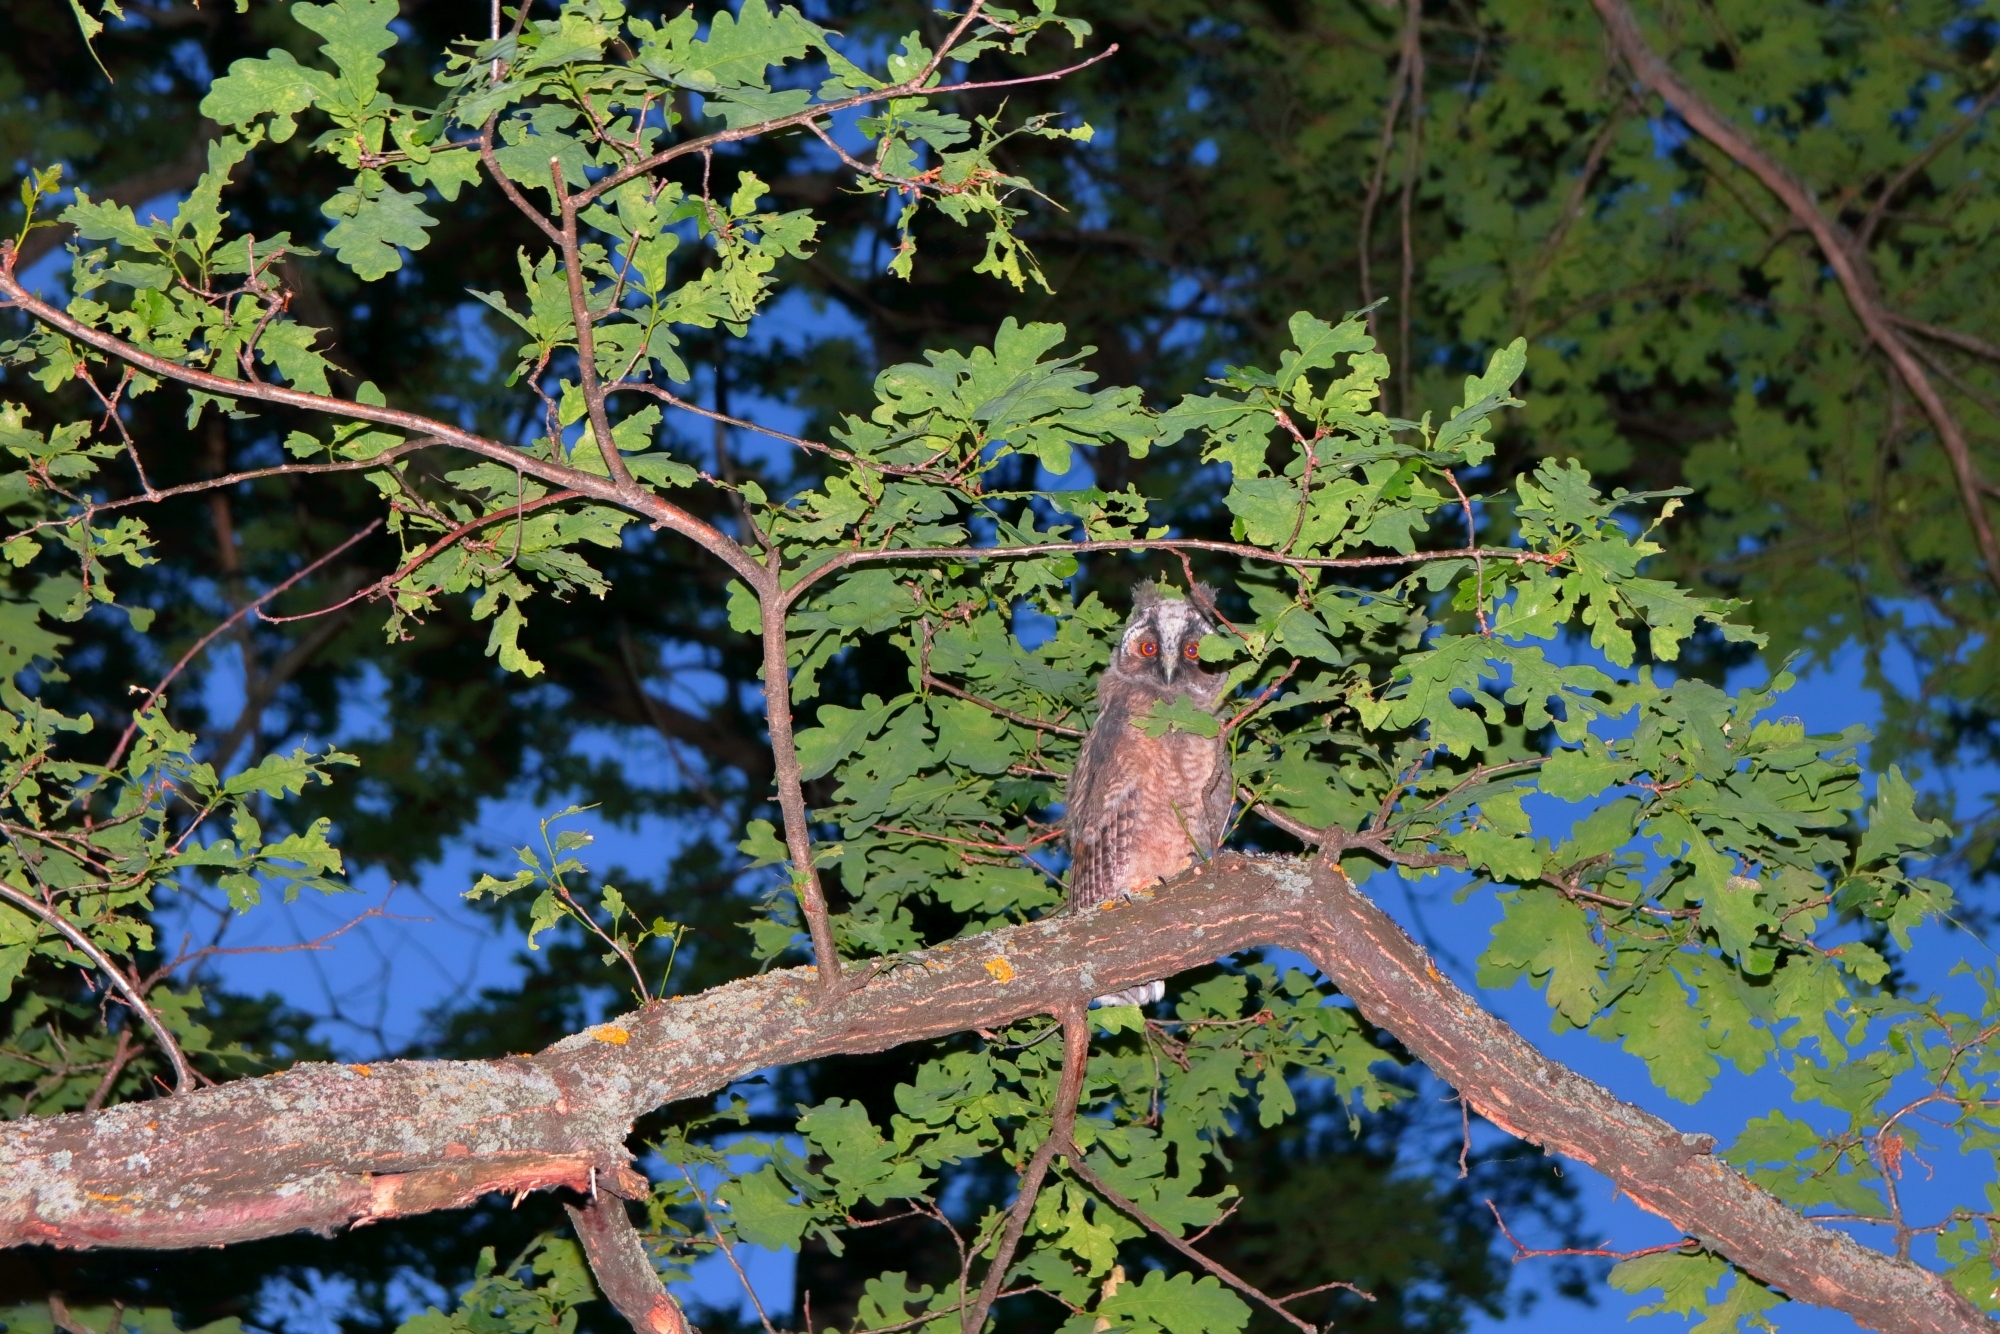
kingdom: Animalia
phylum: Chordata
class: Aves
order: Strigiformes
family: Strigidae
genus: Asio
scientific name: Asio otus
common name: Long-eared owl
